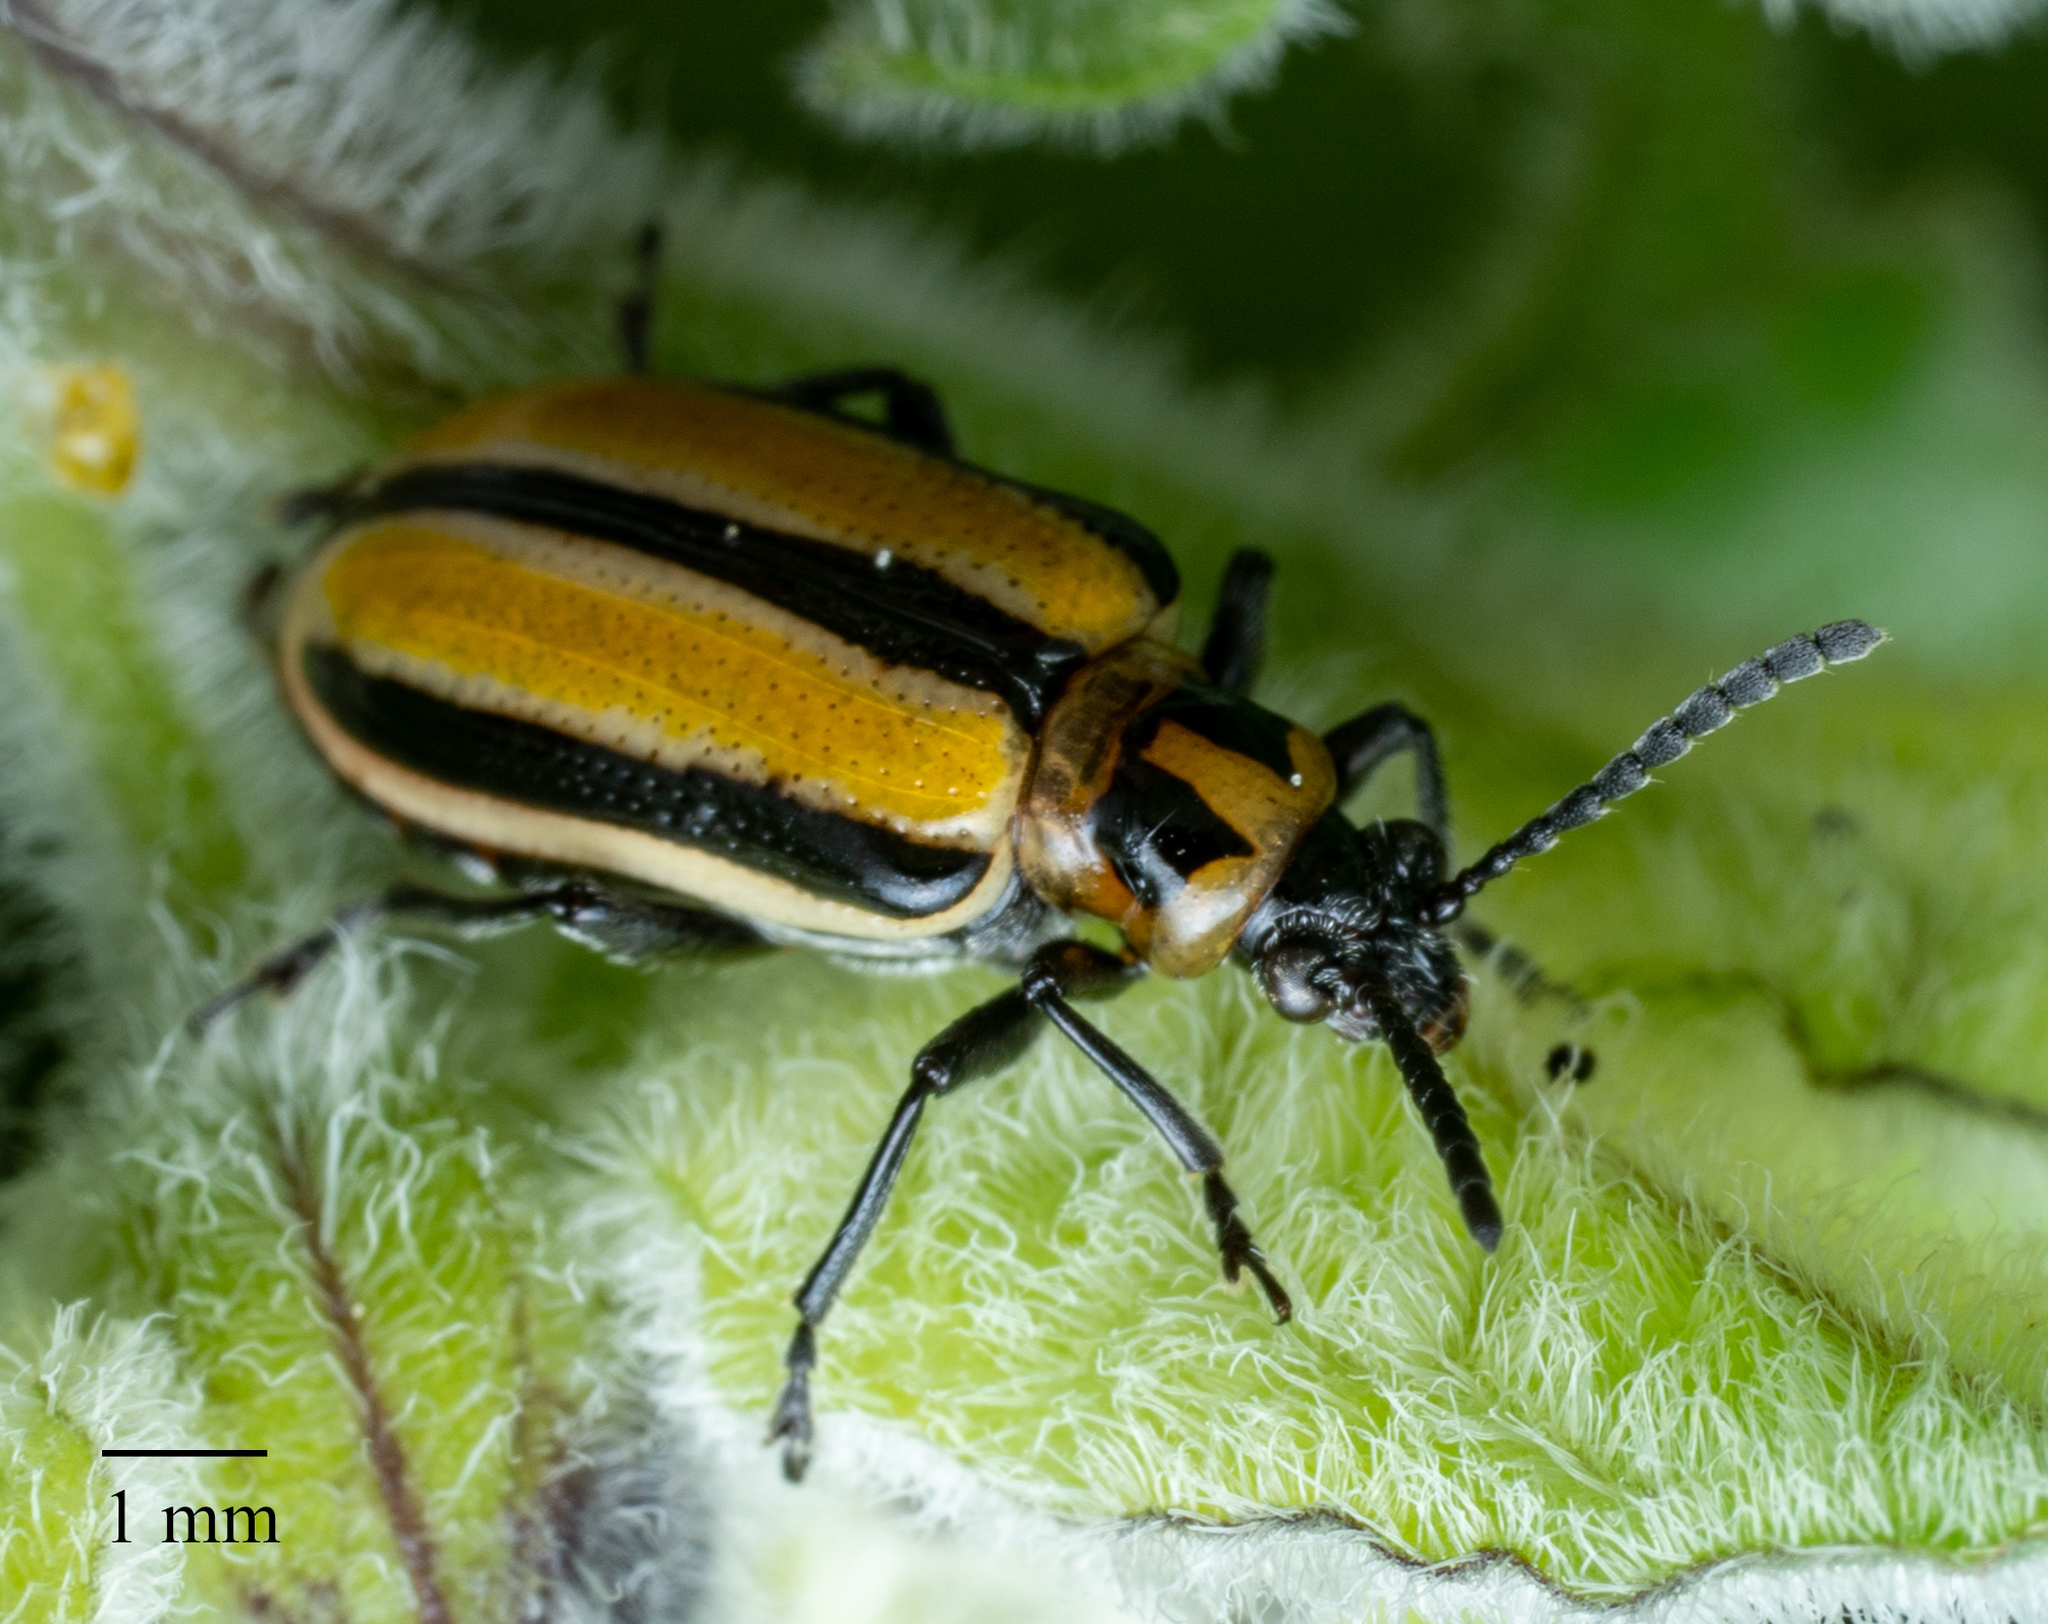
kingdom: Animalia
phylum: Arthropoda
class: Insecta
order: Coleoptera
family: Chrysomelidae
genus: Lema
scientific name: Lema daturaphila
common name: Leaf beetle
